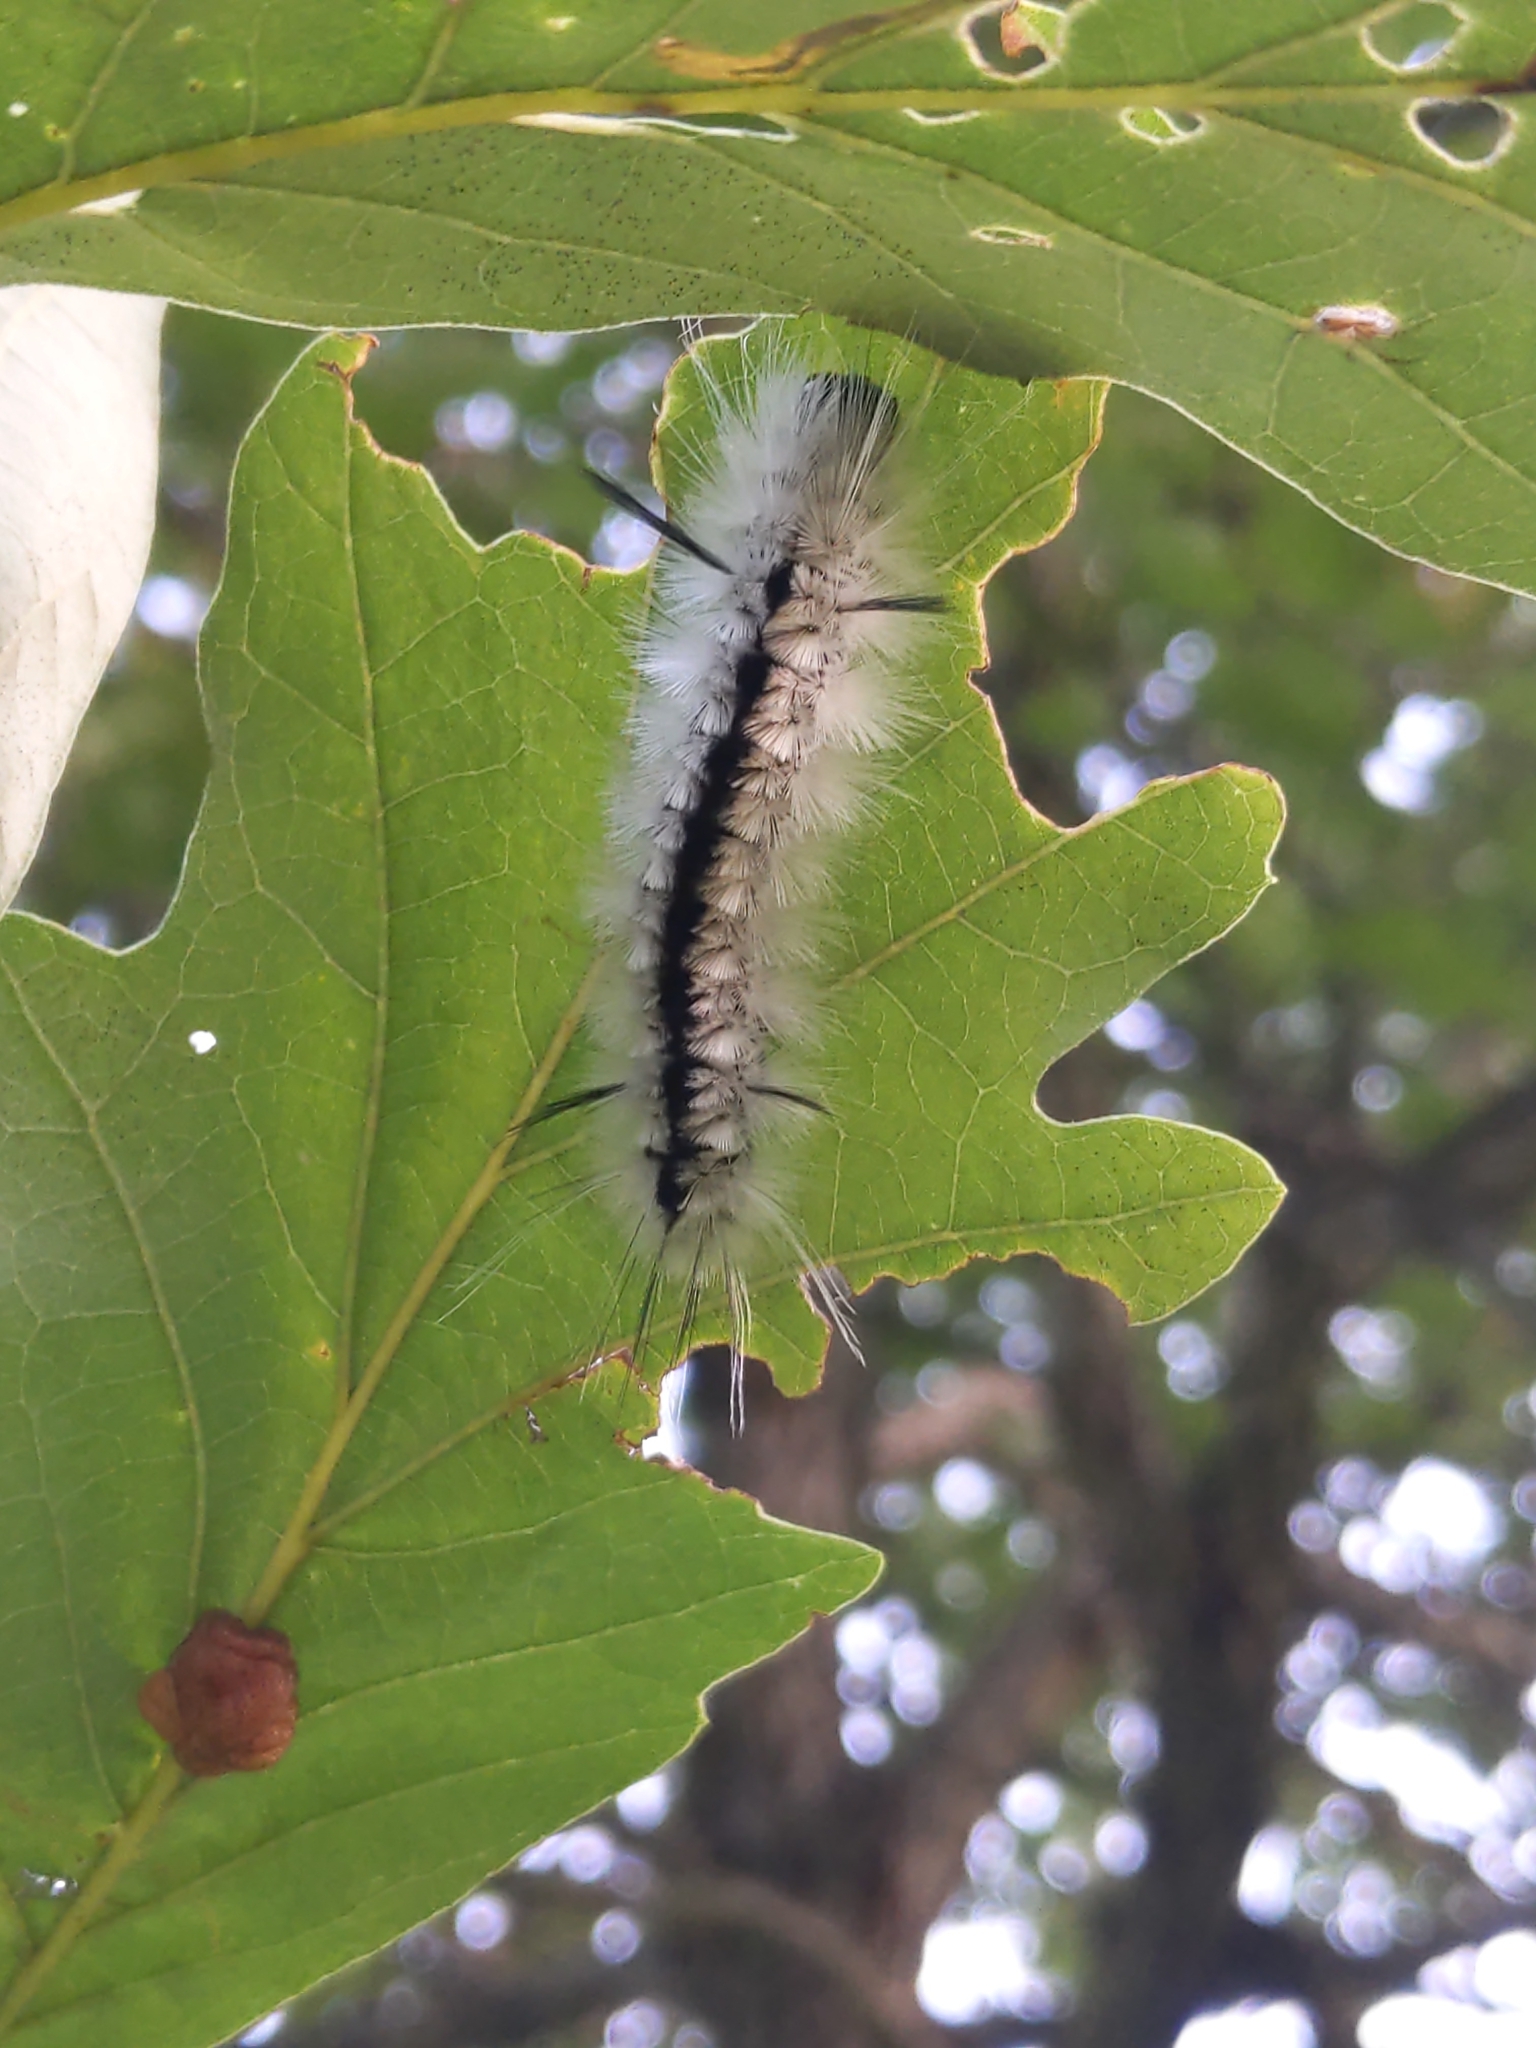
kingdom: Animalia
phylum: Arthropoda
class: Insecta
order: Lepidoptera
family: Erebidae
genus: Lophocampa
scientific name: Lophocampa caryae
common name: Hickory tussock moth
